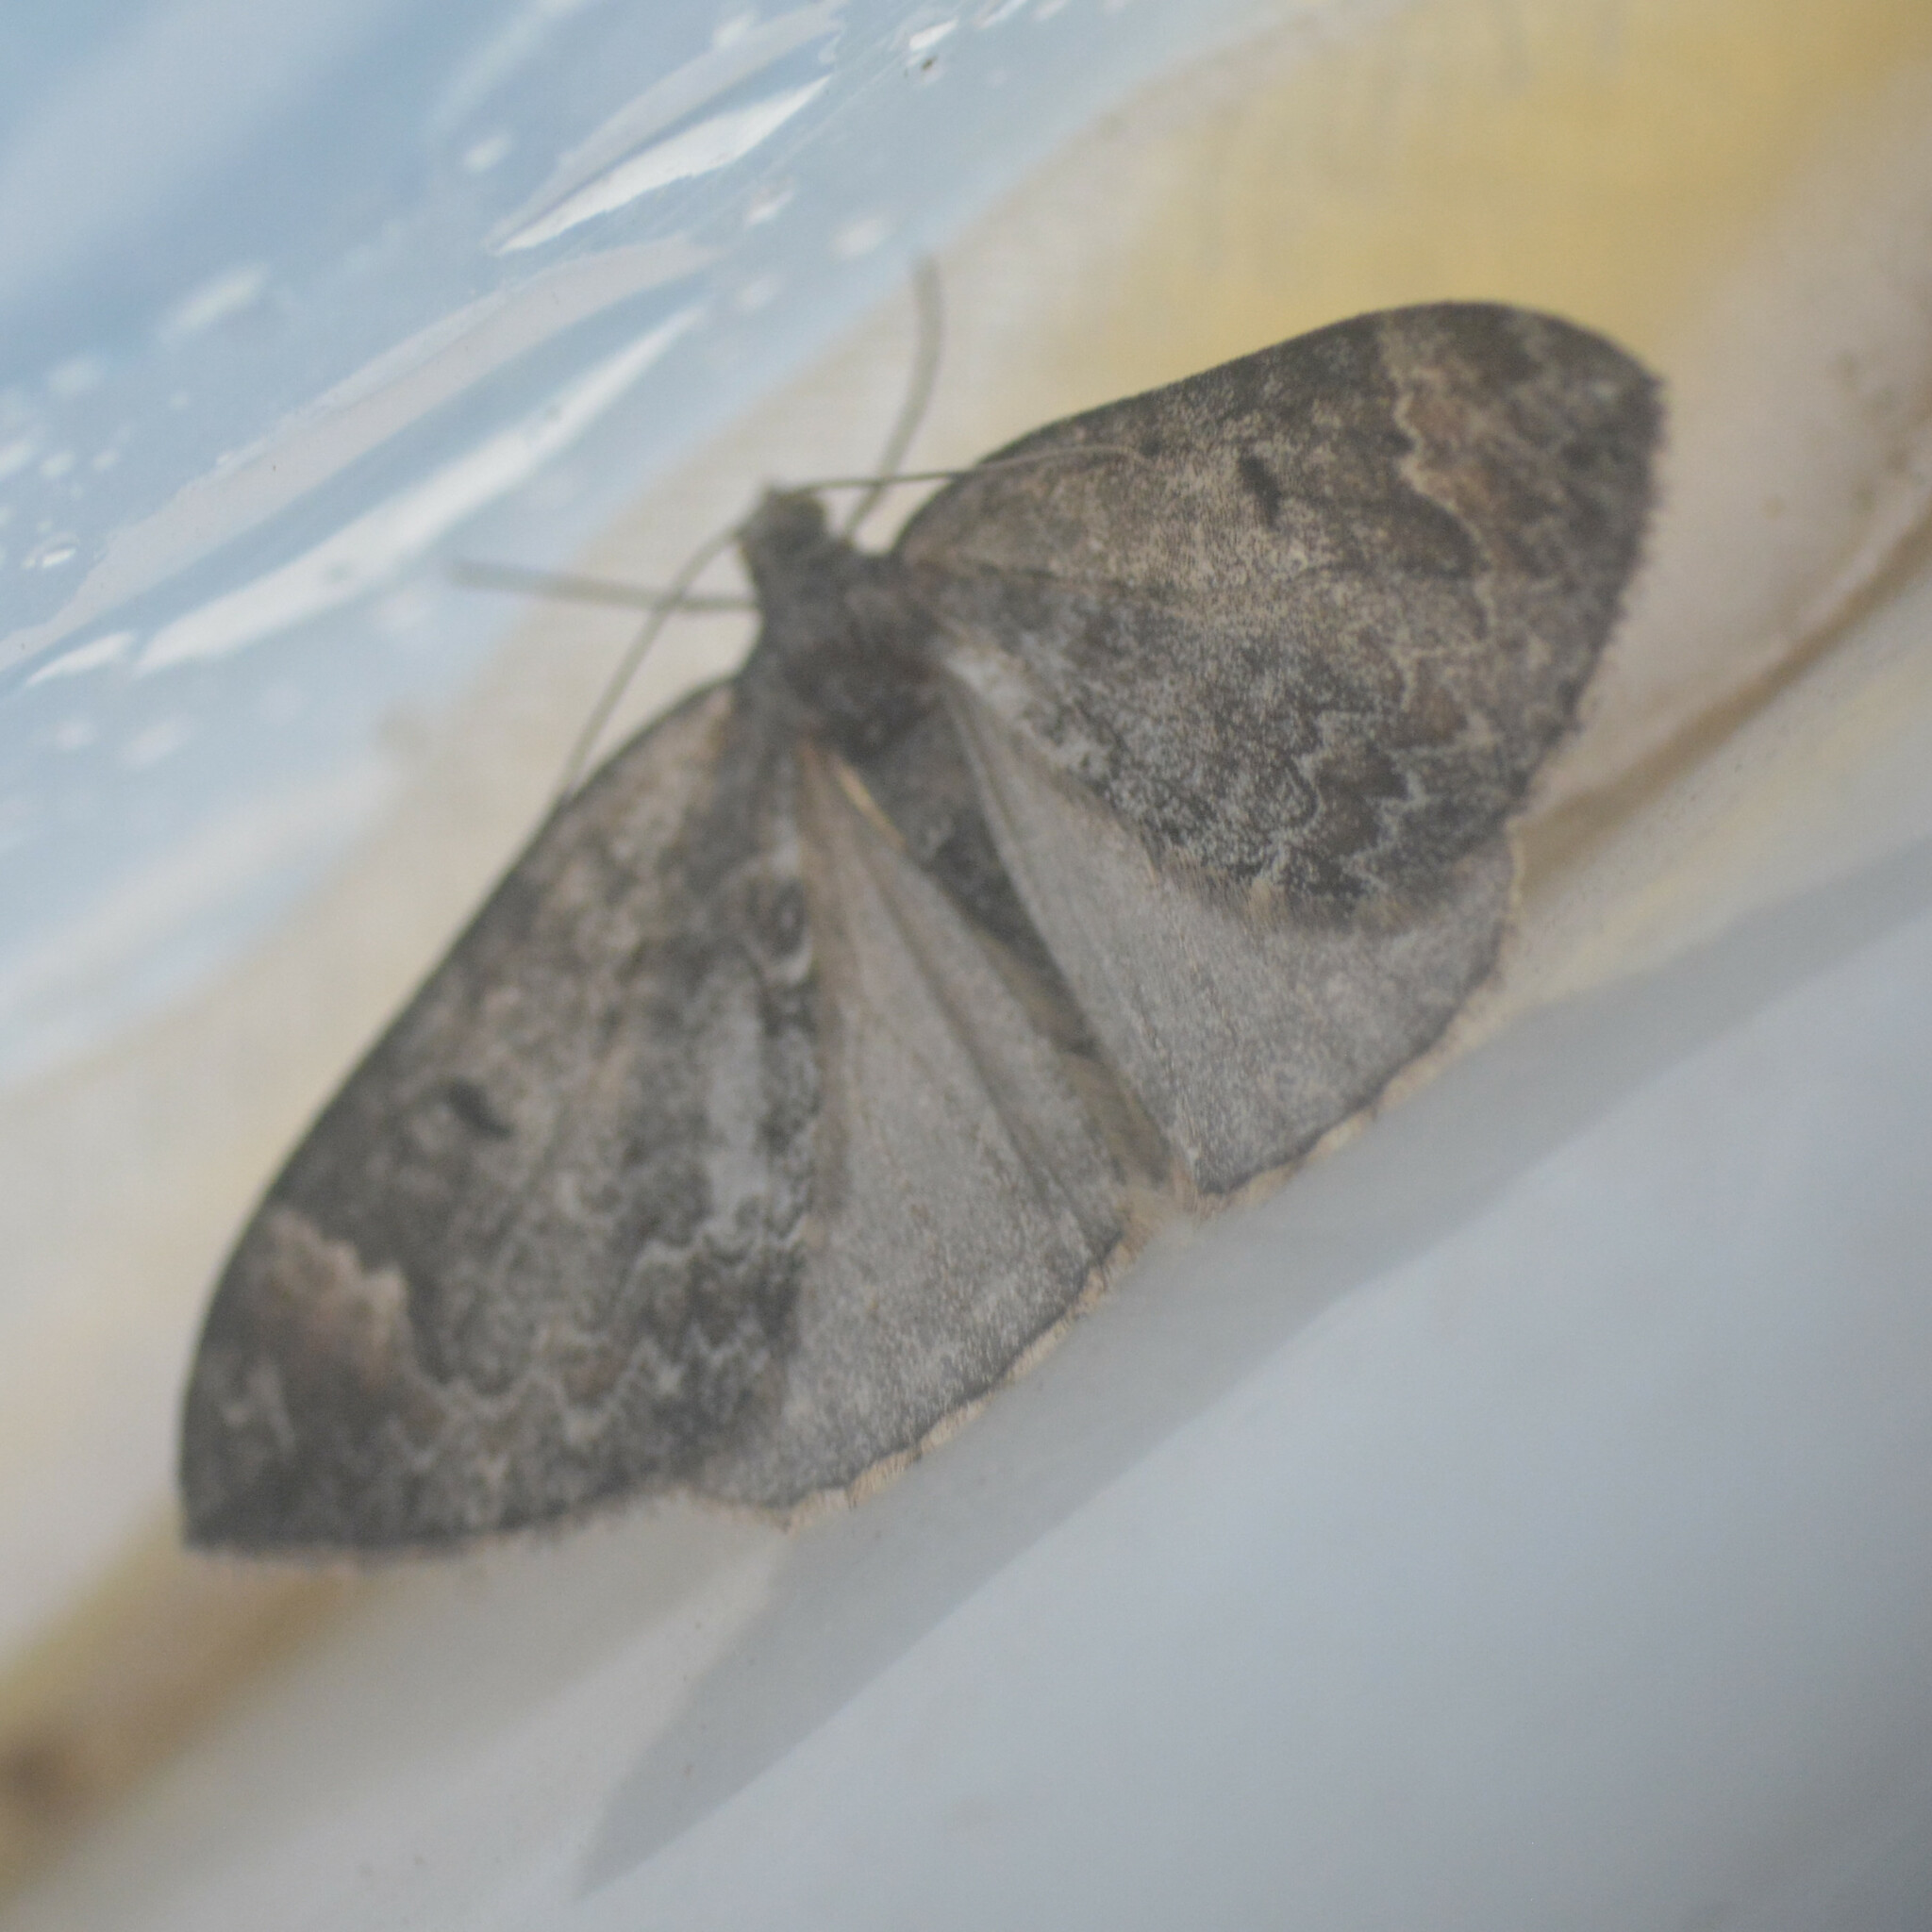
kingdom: Animalia
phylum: Arthropoda
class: Insecta
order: Lepidoptera
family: Geometridae
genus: Dysstroma
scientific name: Dysstroma truncata
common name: Common marbled carpet
